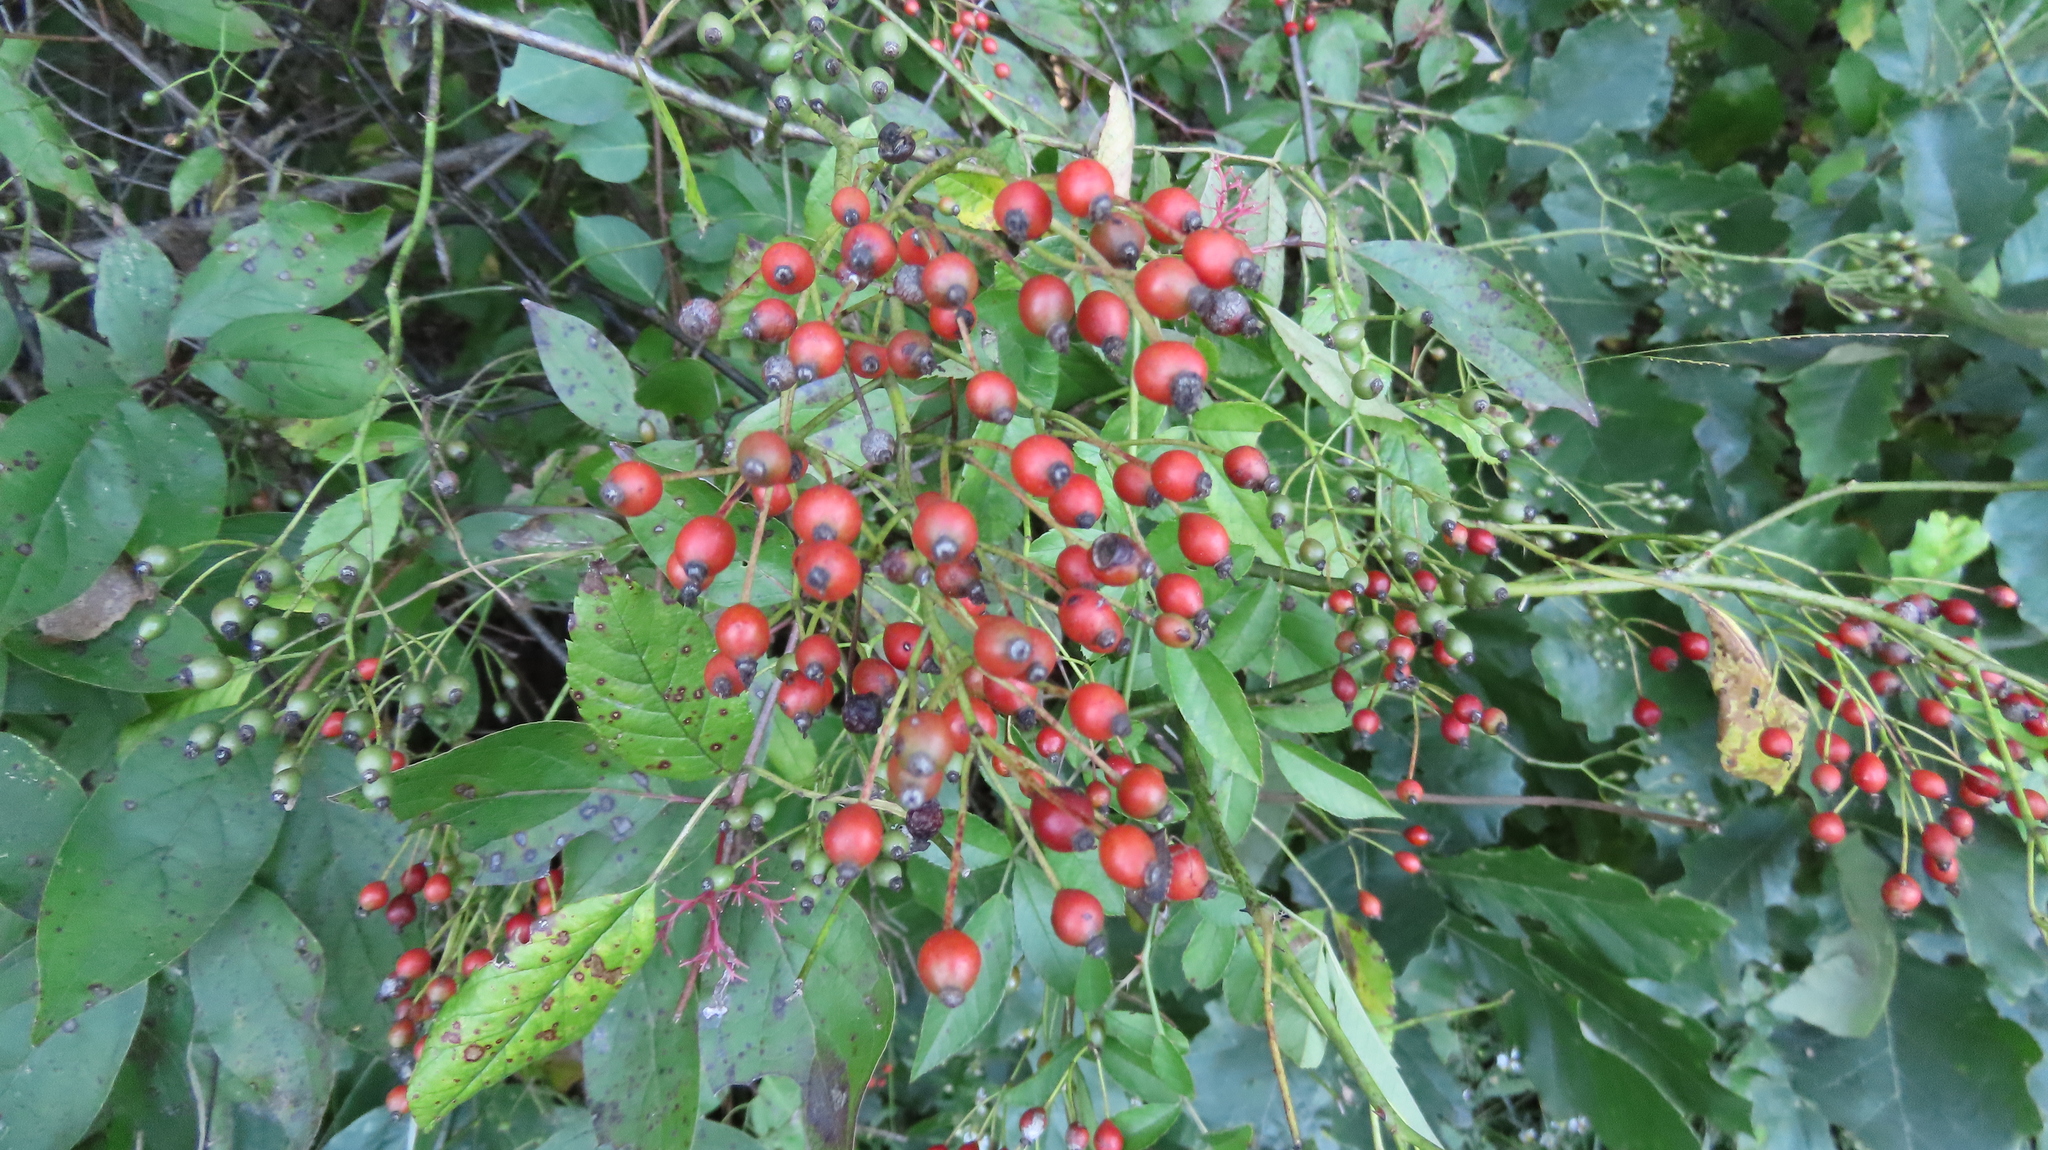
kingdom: Plantae
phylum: Tracheophyta
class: Magnoliopsida
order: Rosales
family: Rosaceae
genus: Rosa
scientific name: Rosa multiflora
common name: Multiflora rose
